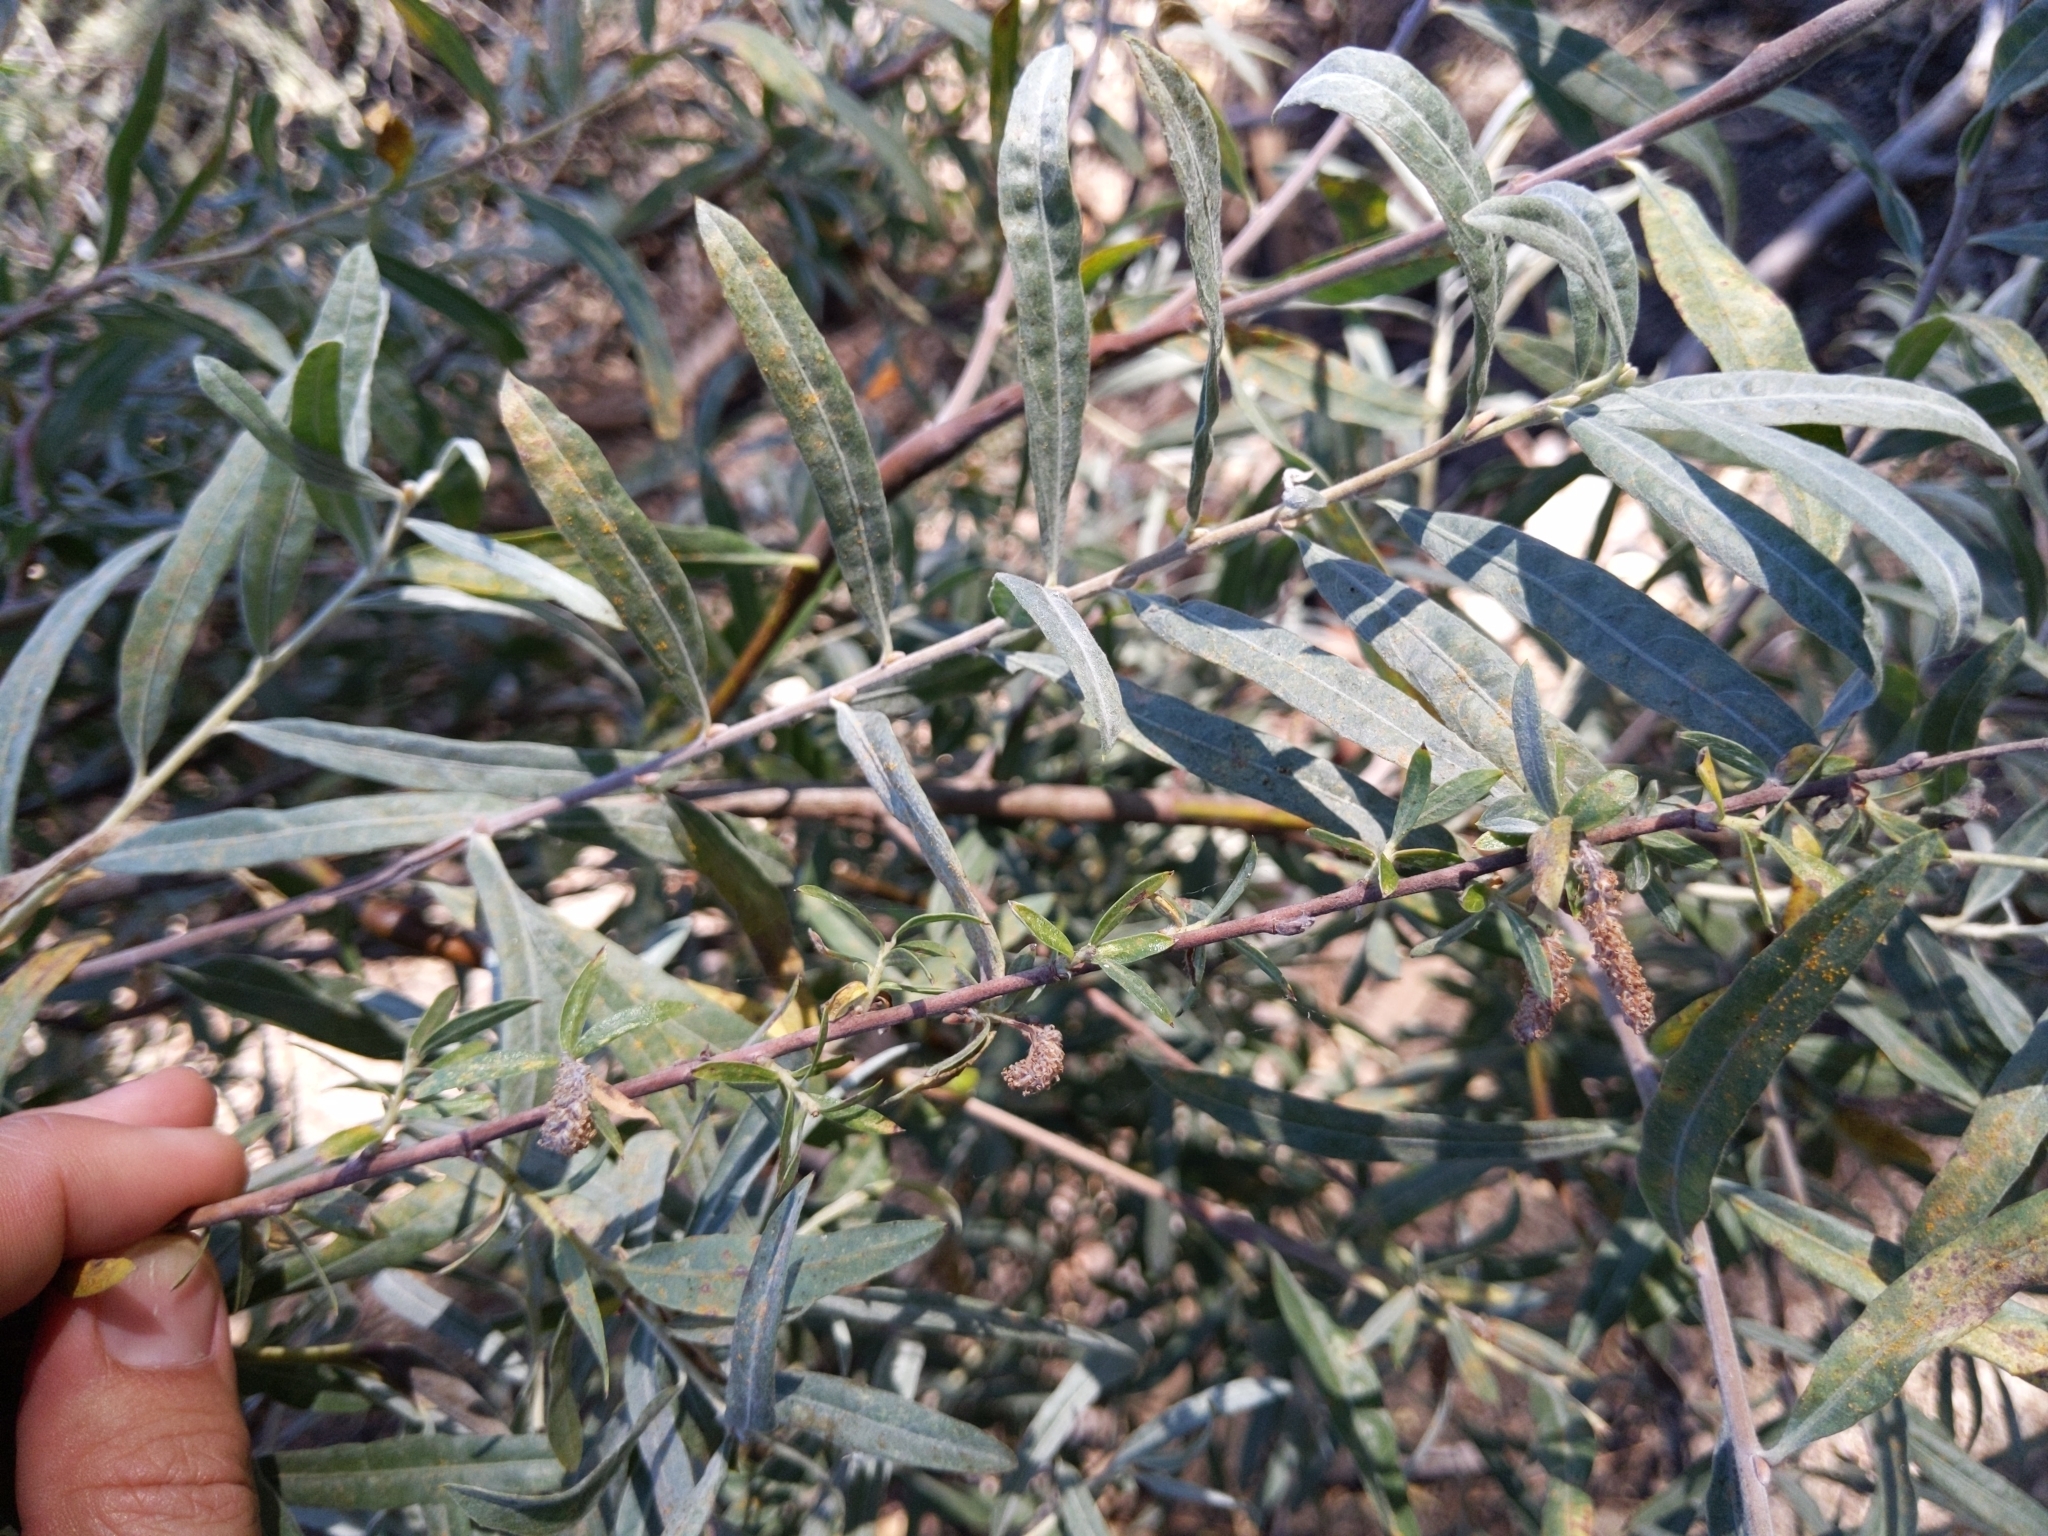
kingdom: Plantae
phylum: Tracheophyta
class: Magnoliopsida
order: Malpighiales
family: Salicaceae
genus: Salix
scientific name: Salix exigua
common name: Coyote willow
